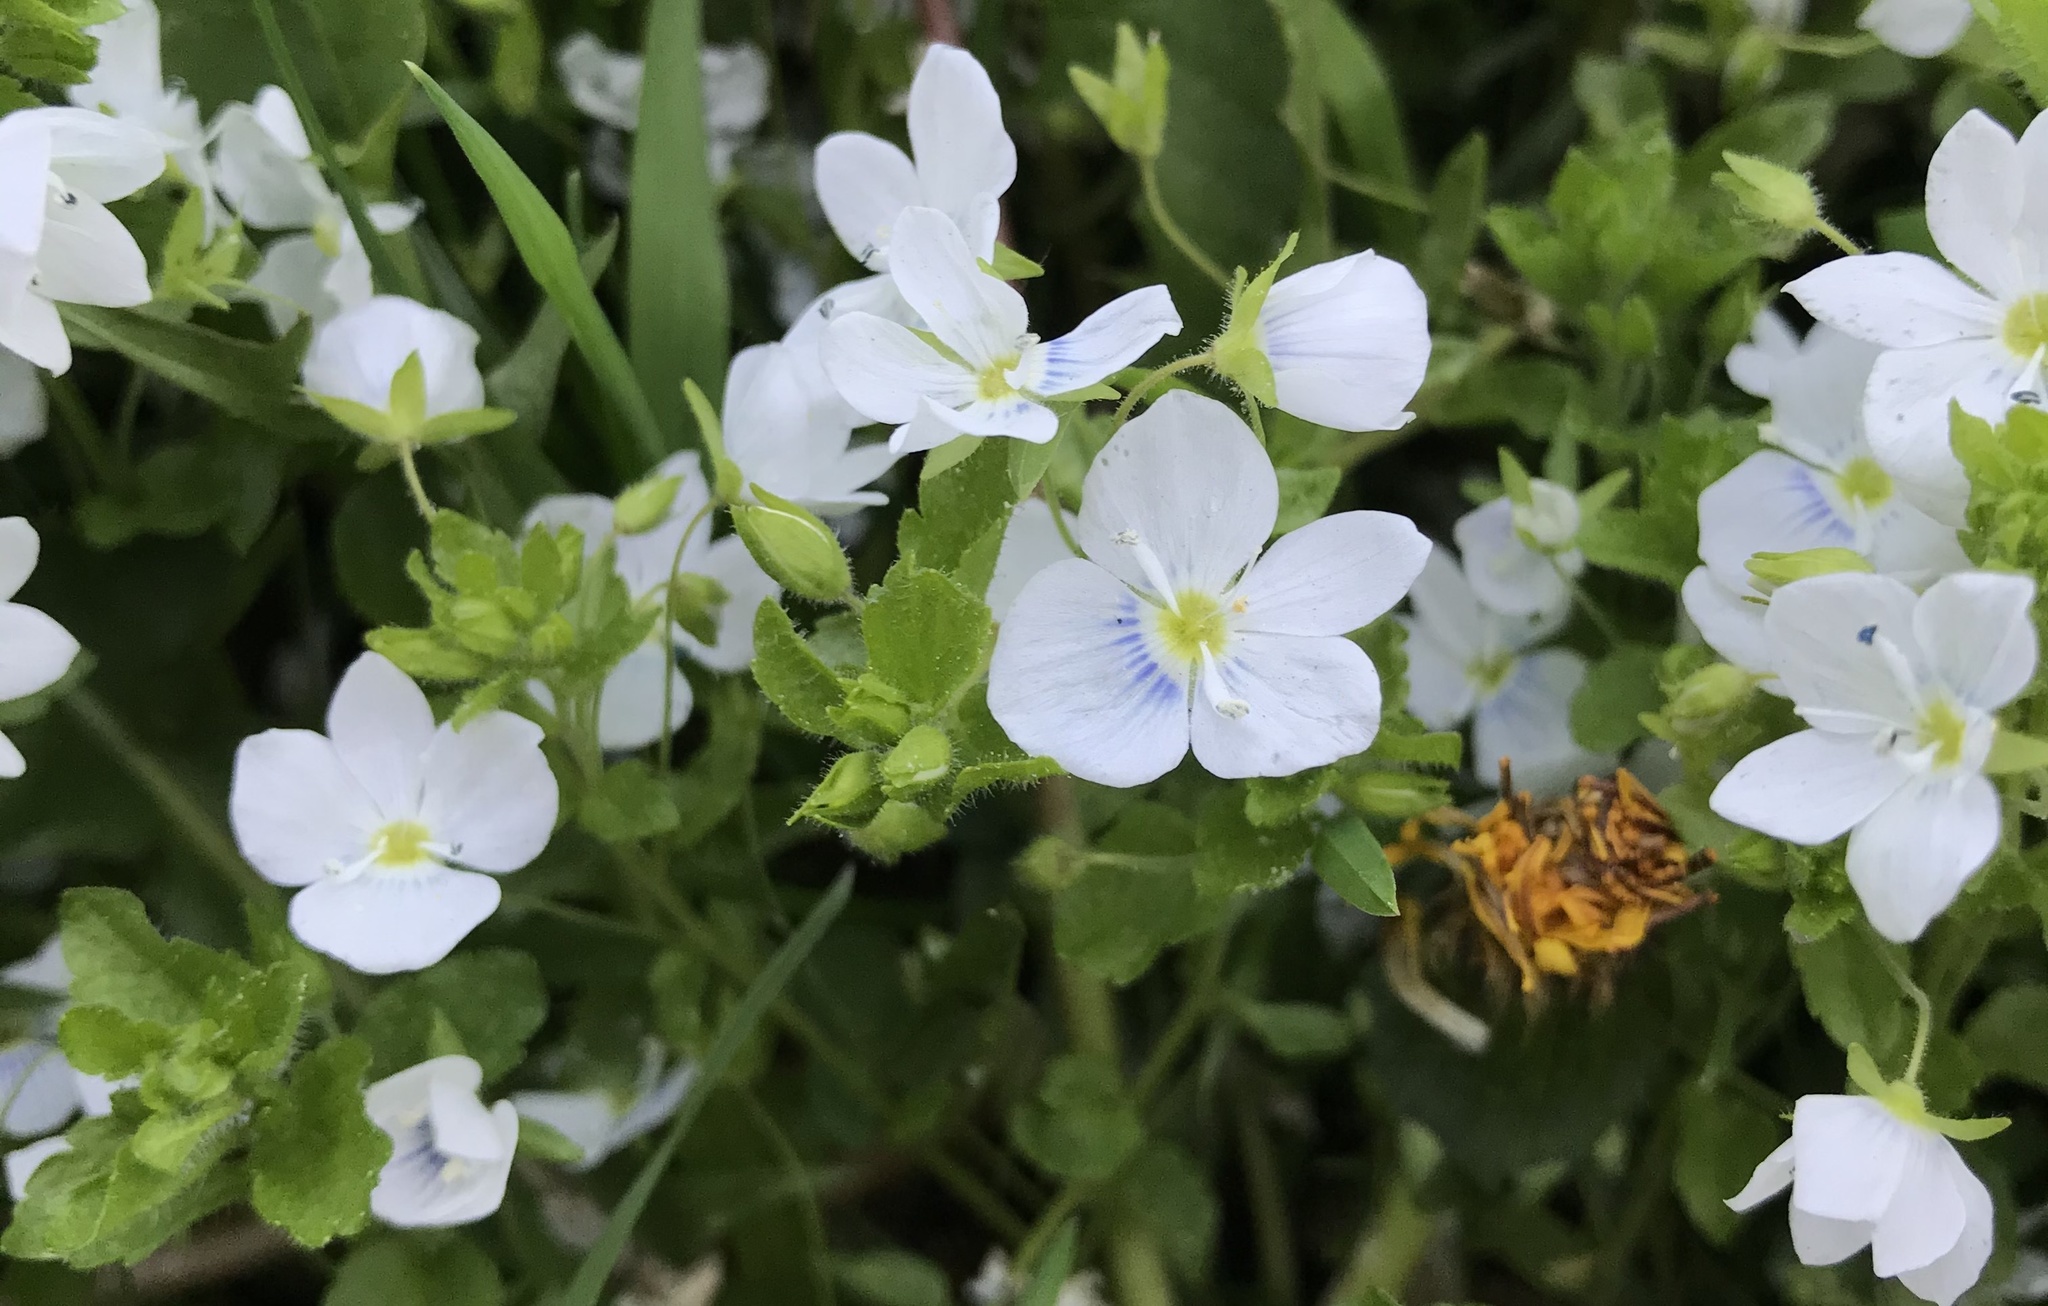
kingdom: Plantae
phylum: Tracheophyta
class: Magnoliopsida
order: Lamiales
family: Plantaginaceae
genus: Veronica
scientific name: Veronica filiformis
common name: Slender speedwell
